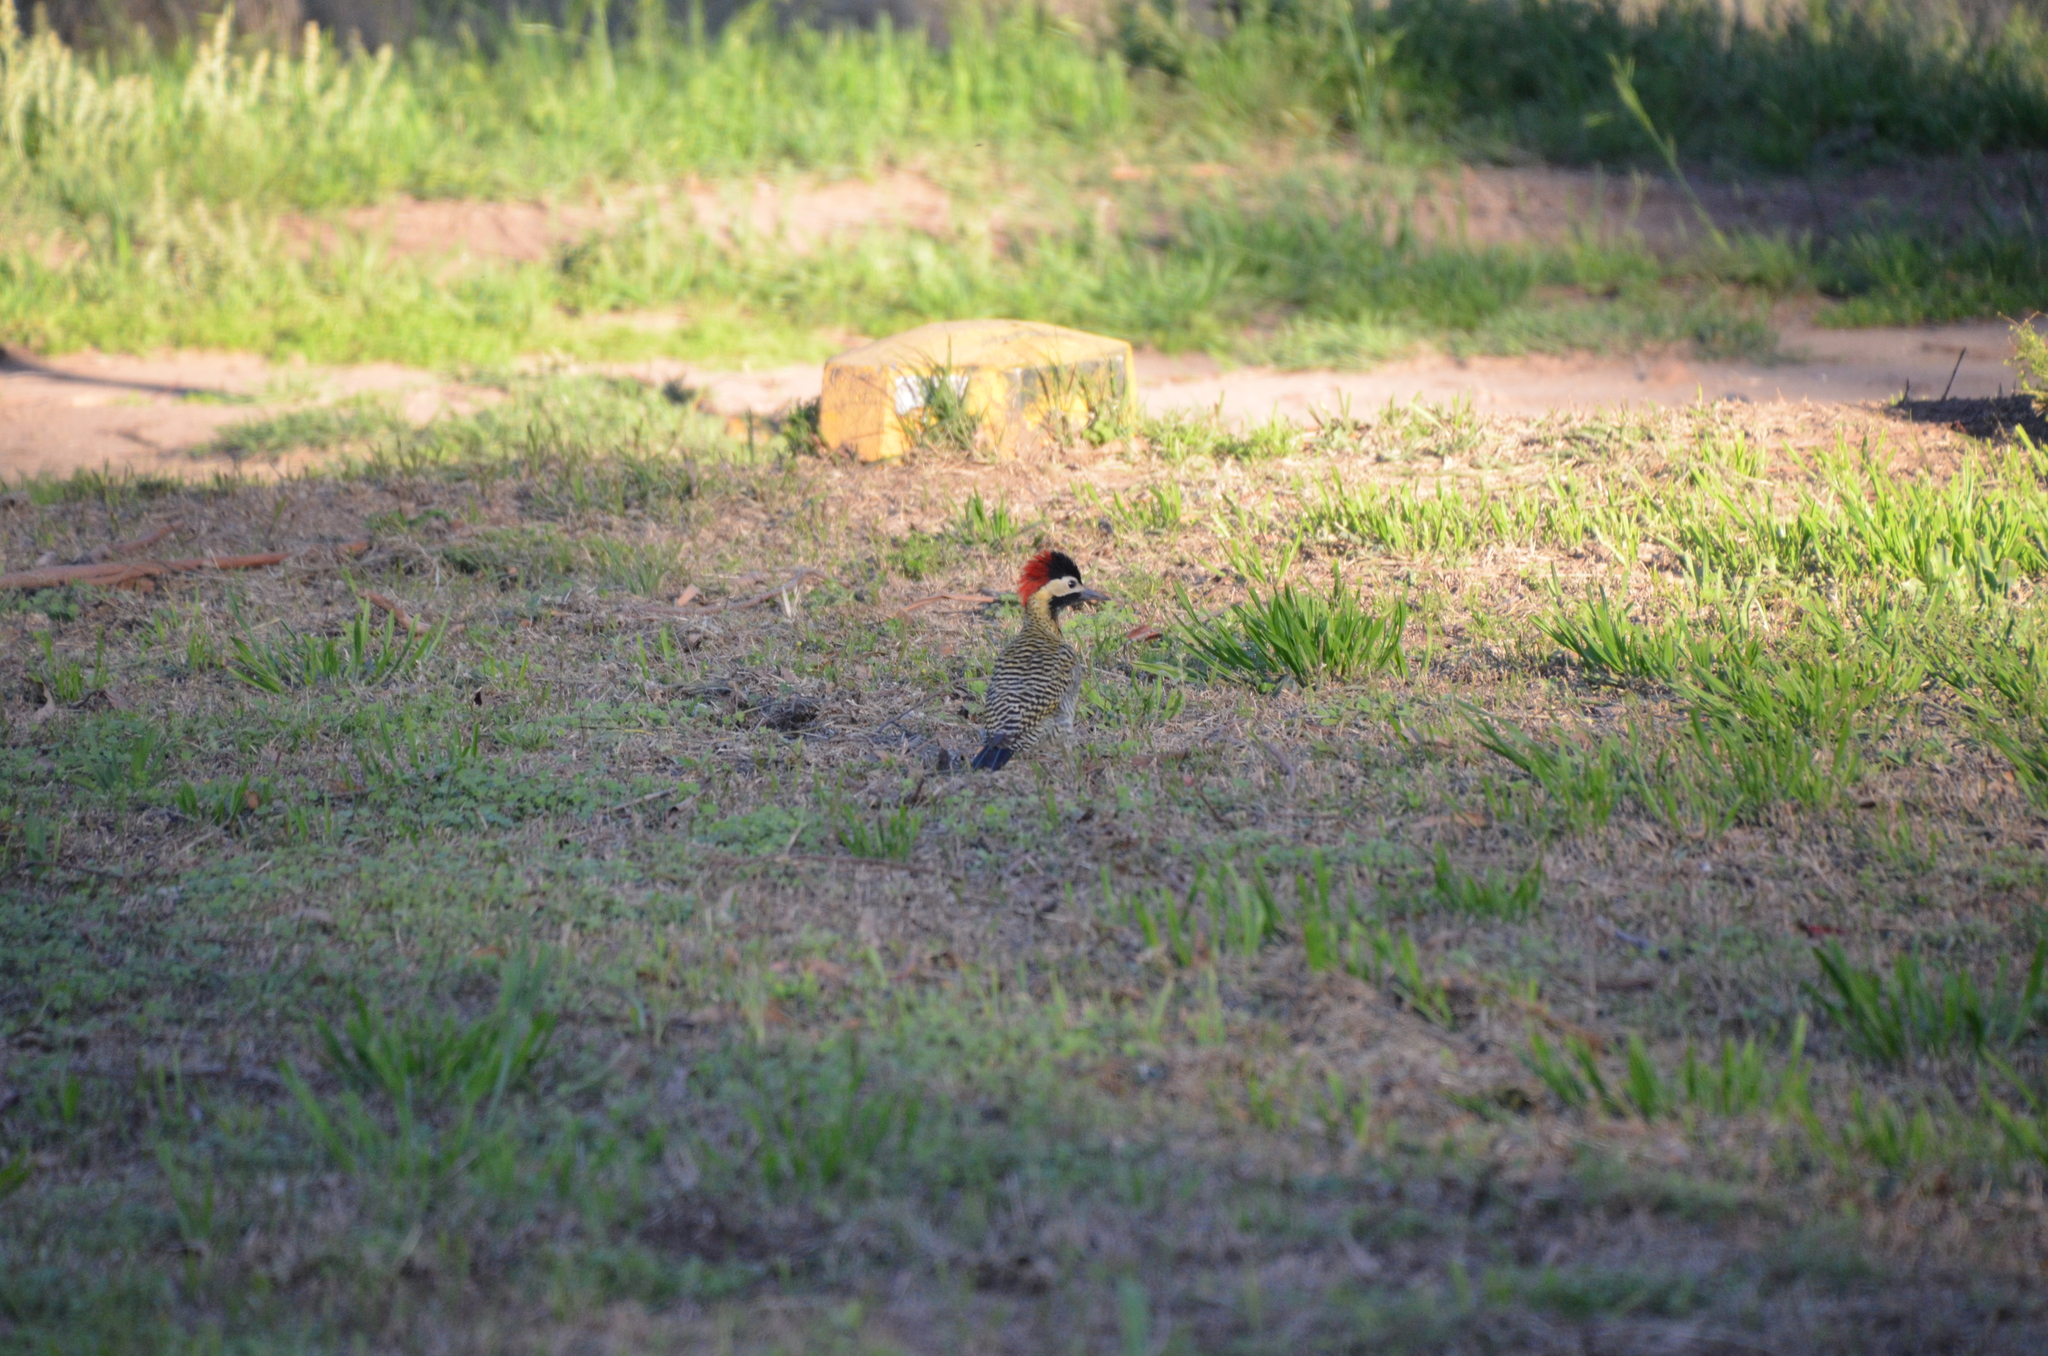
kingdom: Animalia
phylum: Chordata
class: Aves
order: Piciformes
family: Picidae
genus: Colaptes
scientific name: Colaptes melanochloros
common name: Green-barred woodpecker
